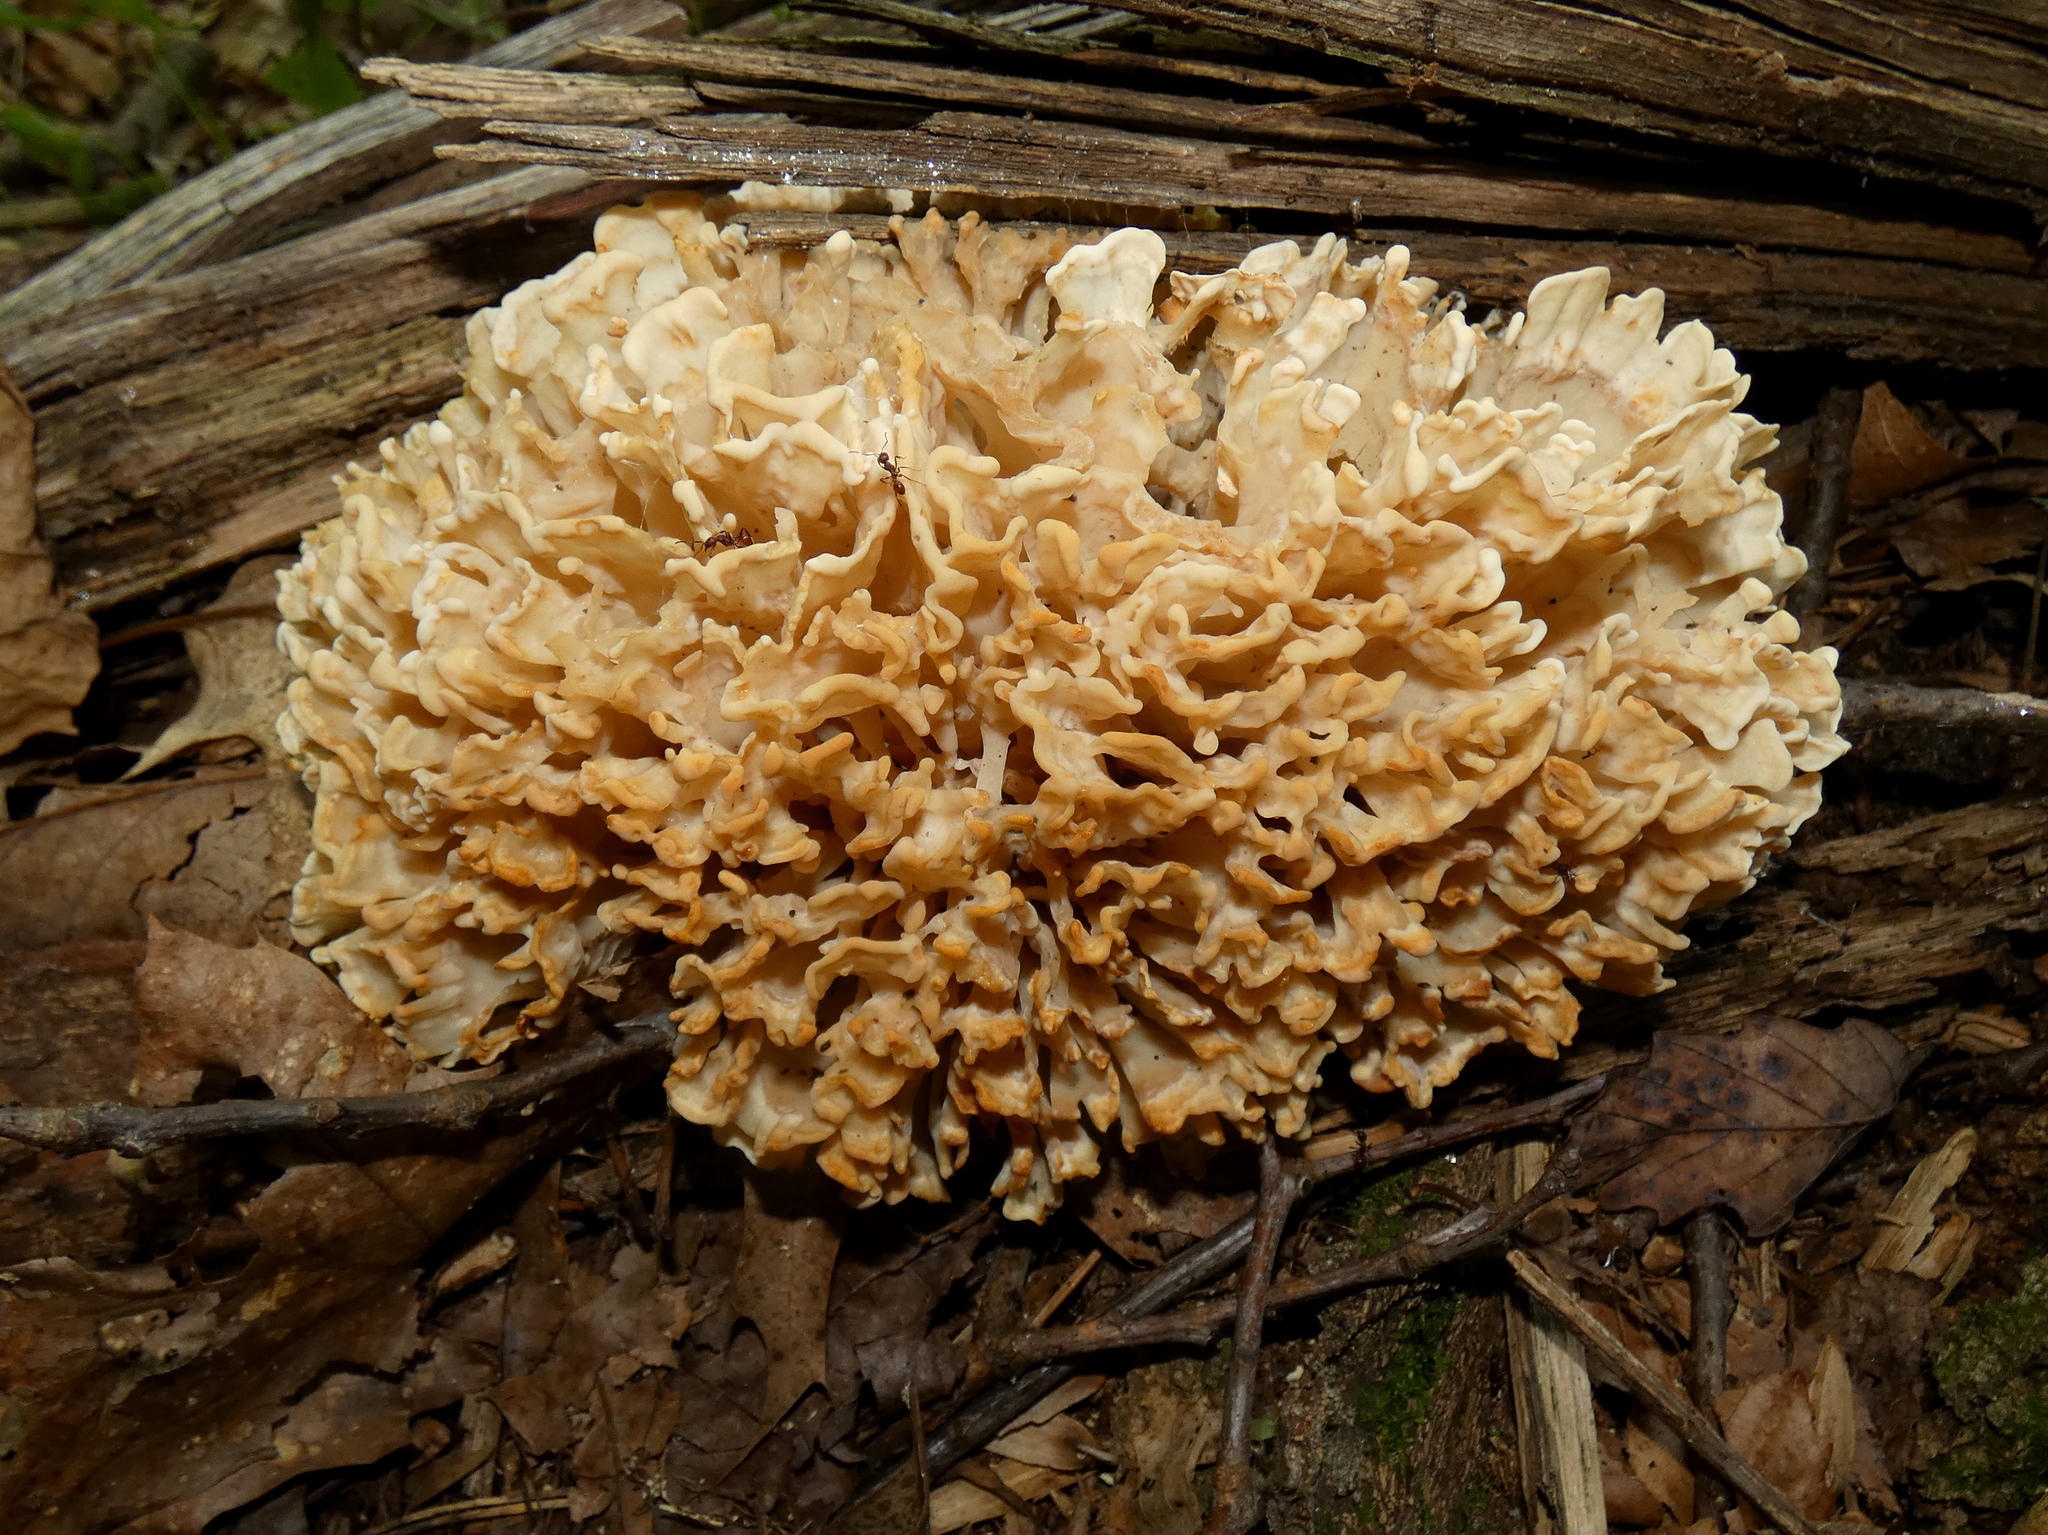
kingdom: Fungi
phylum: Basidiomycota
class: Agaricomycetes
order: Polyporales
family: Sparassidaceae
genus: Sparassis
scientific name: Sparassis spathulata
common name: Eastern cauliflower mushroom
